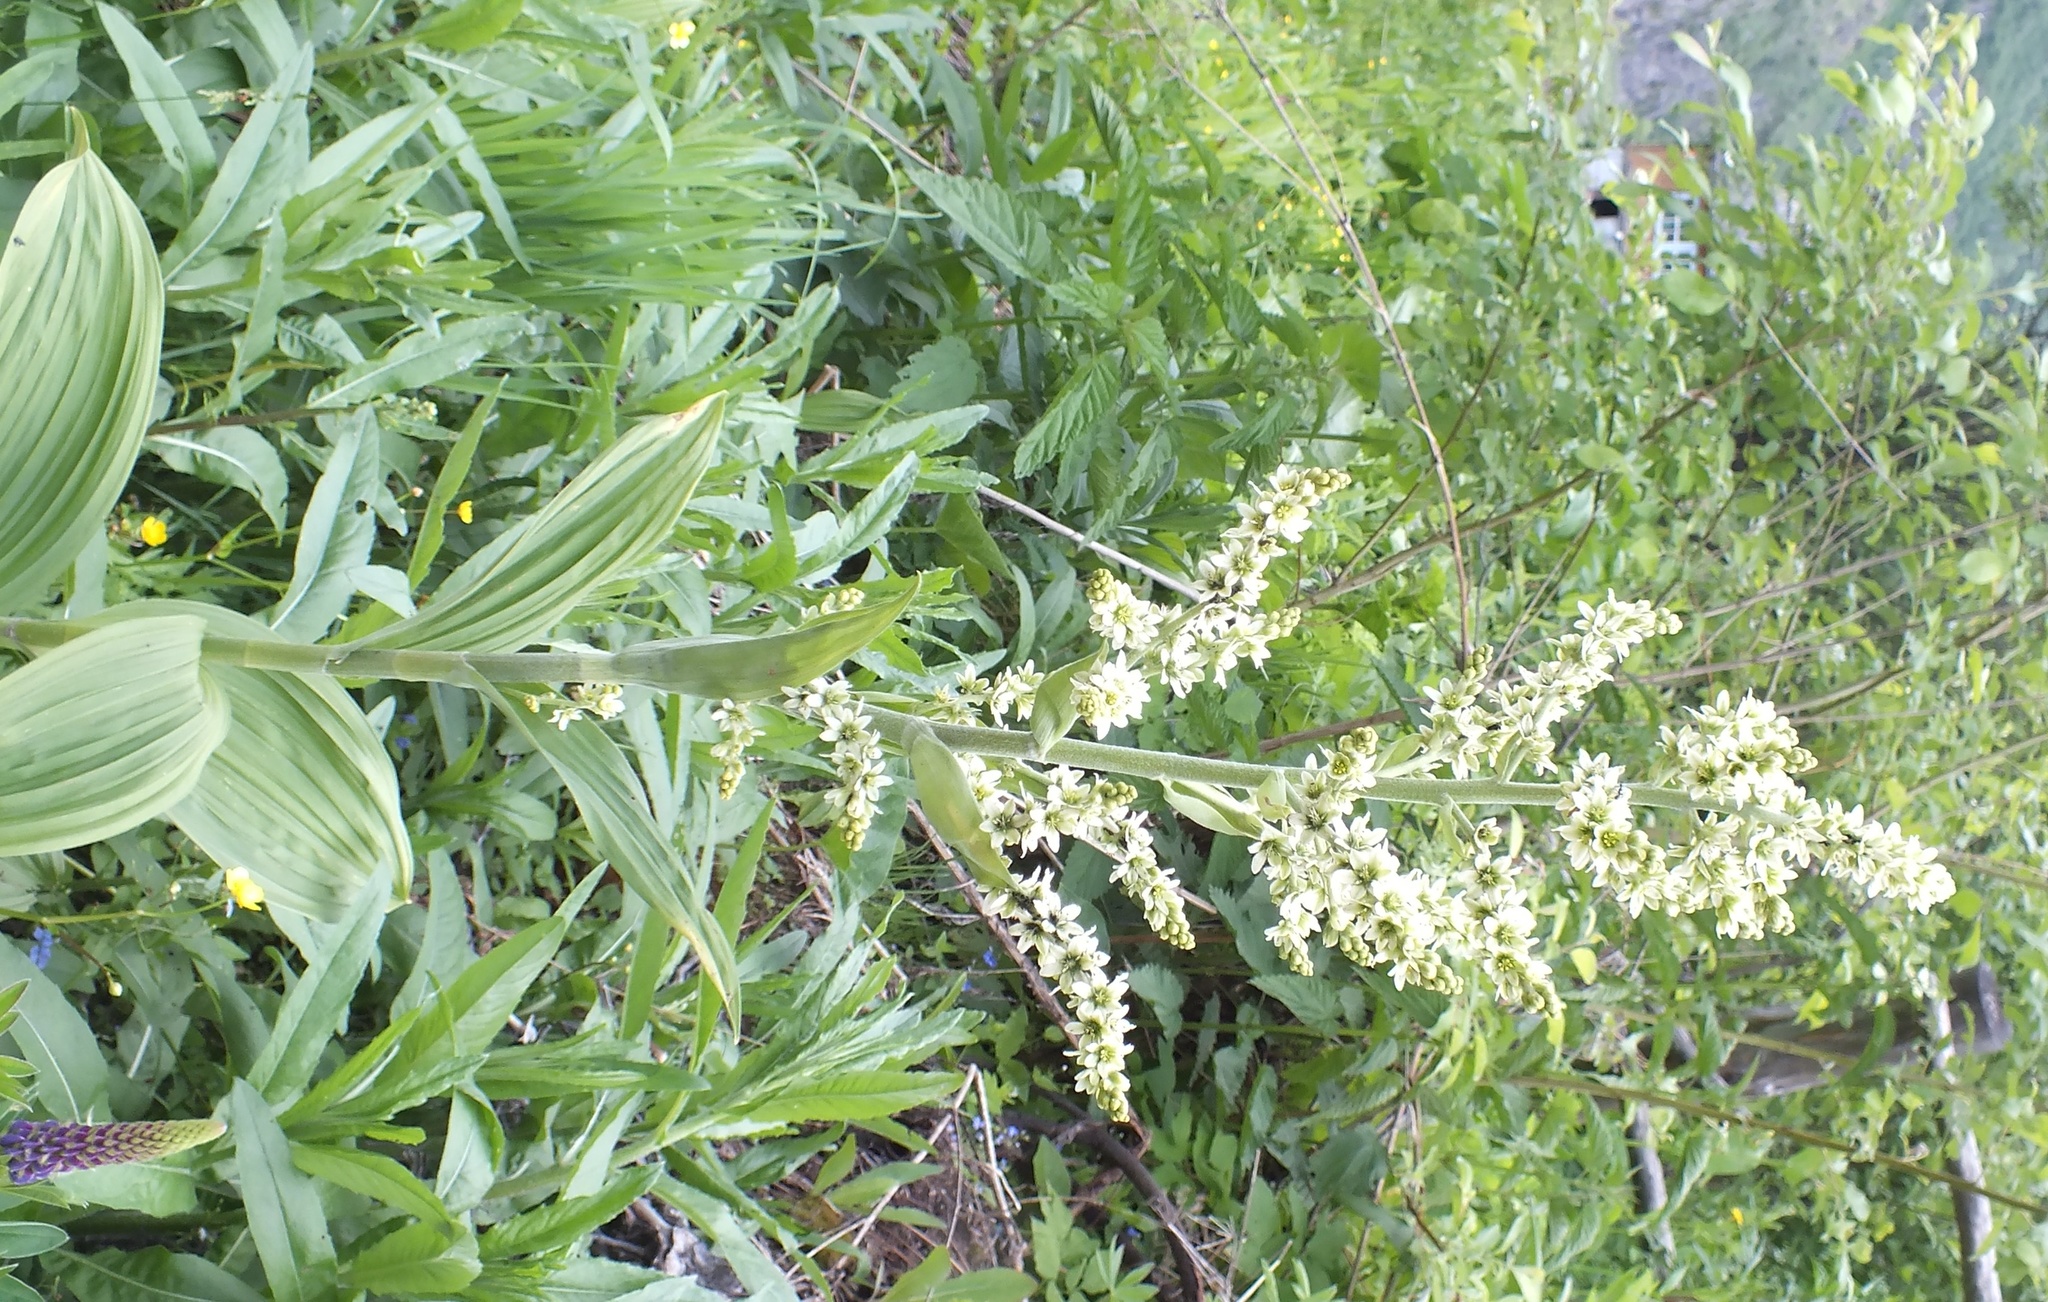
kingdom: Plantae
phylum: Tracheophyta
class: Liliopsida
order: Liliales
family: Melanthiaceae
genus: Veratrum
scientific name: Veratrum lobelianum
